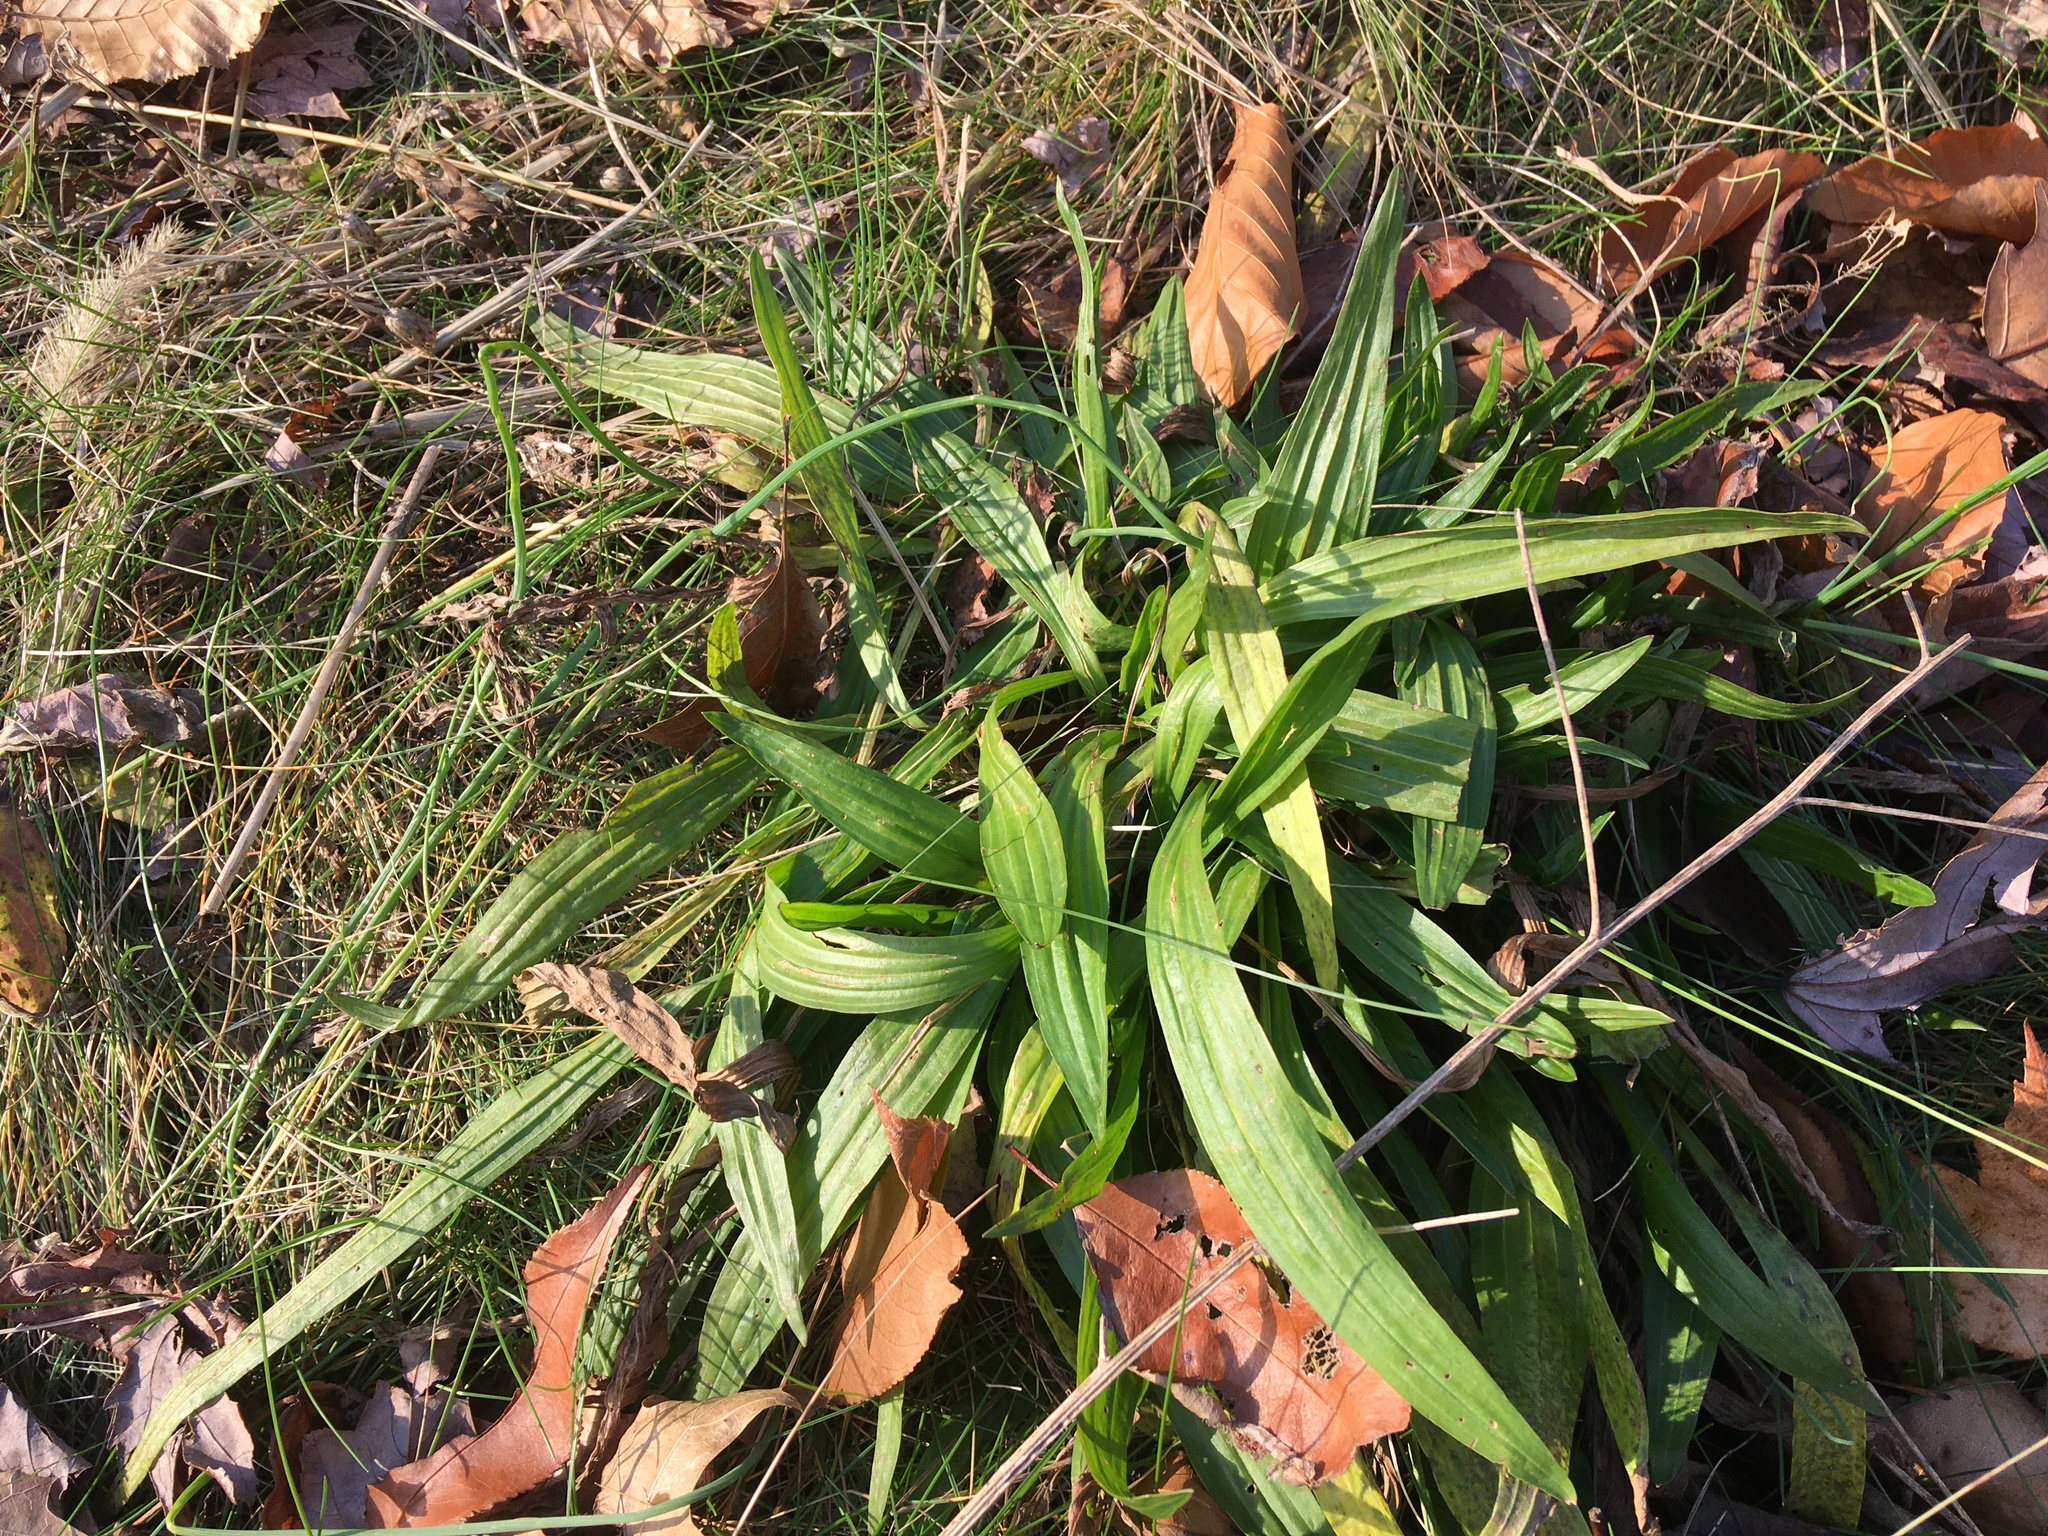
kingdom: Plantae
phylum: Tracheophyta
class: Magnoliopsida
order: Lamiales
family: Plantaginaceae
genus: Plantago
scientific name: Plantago lanceolata
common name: Ribwort plantain
